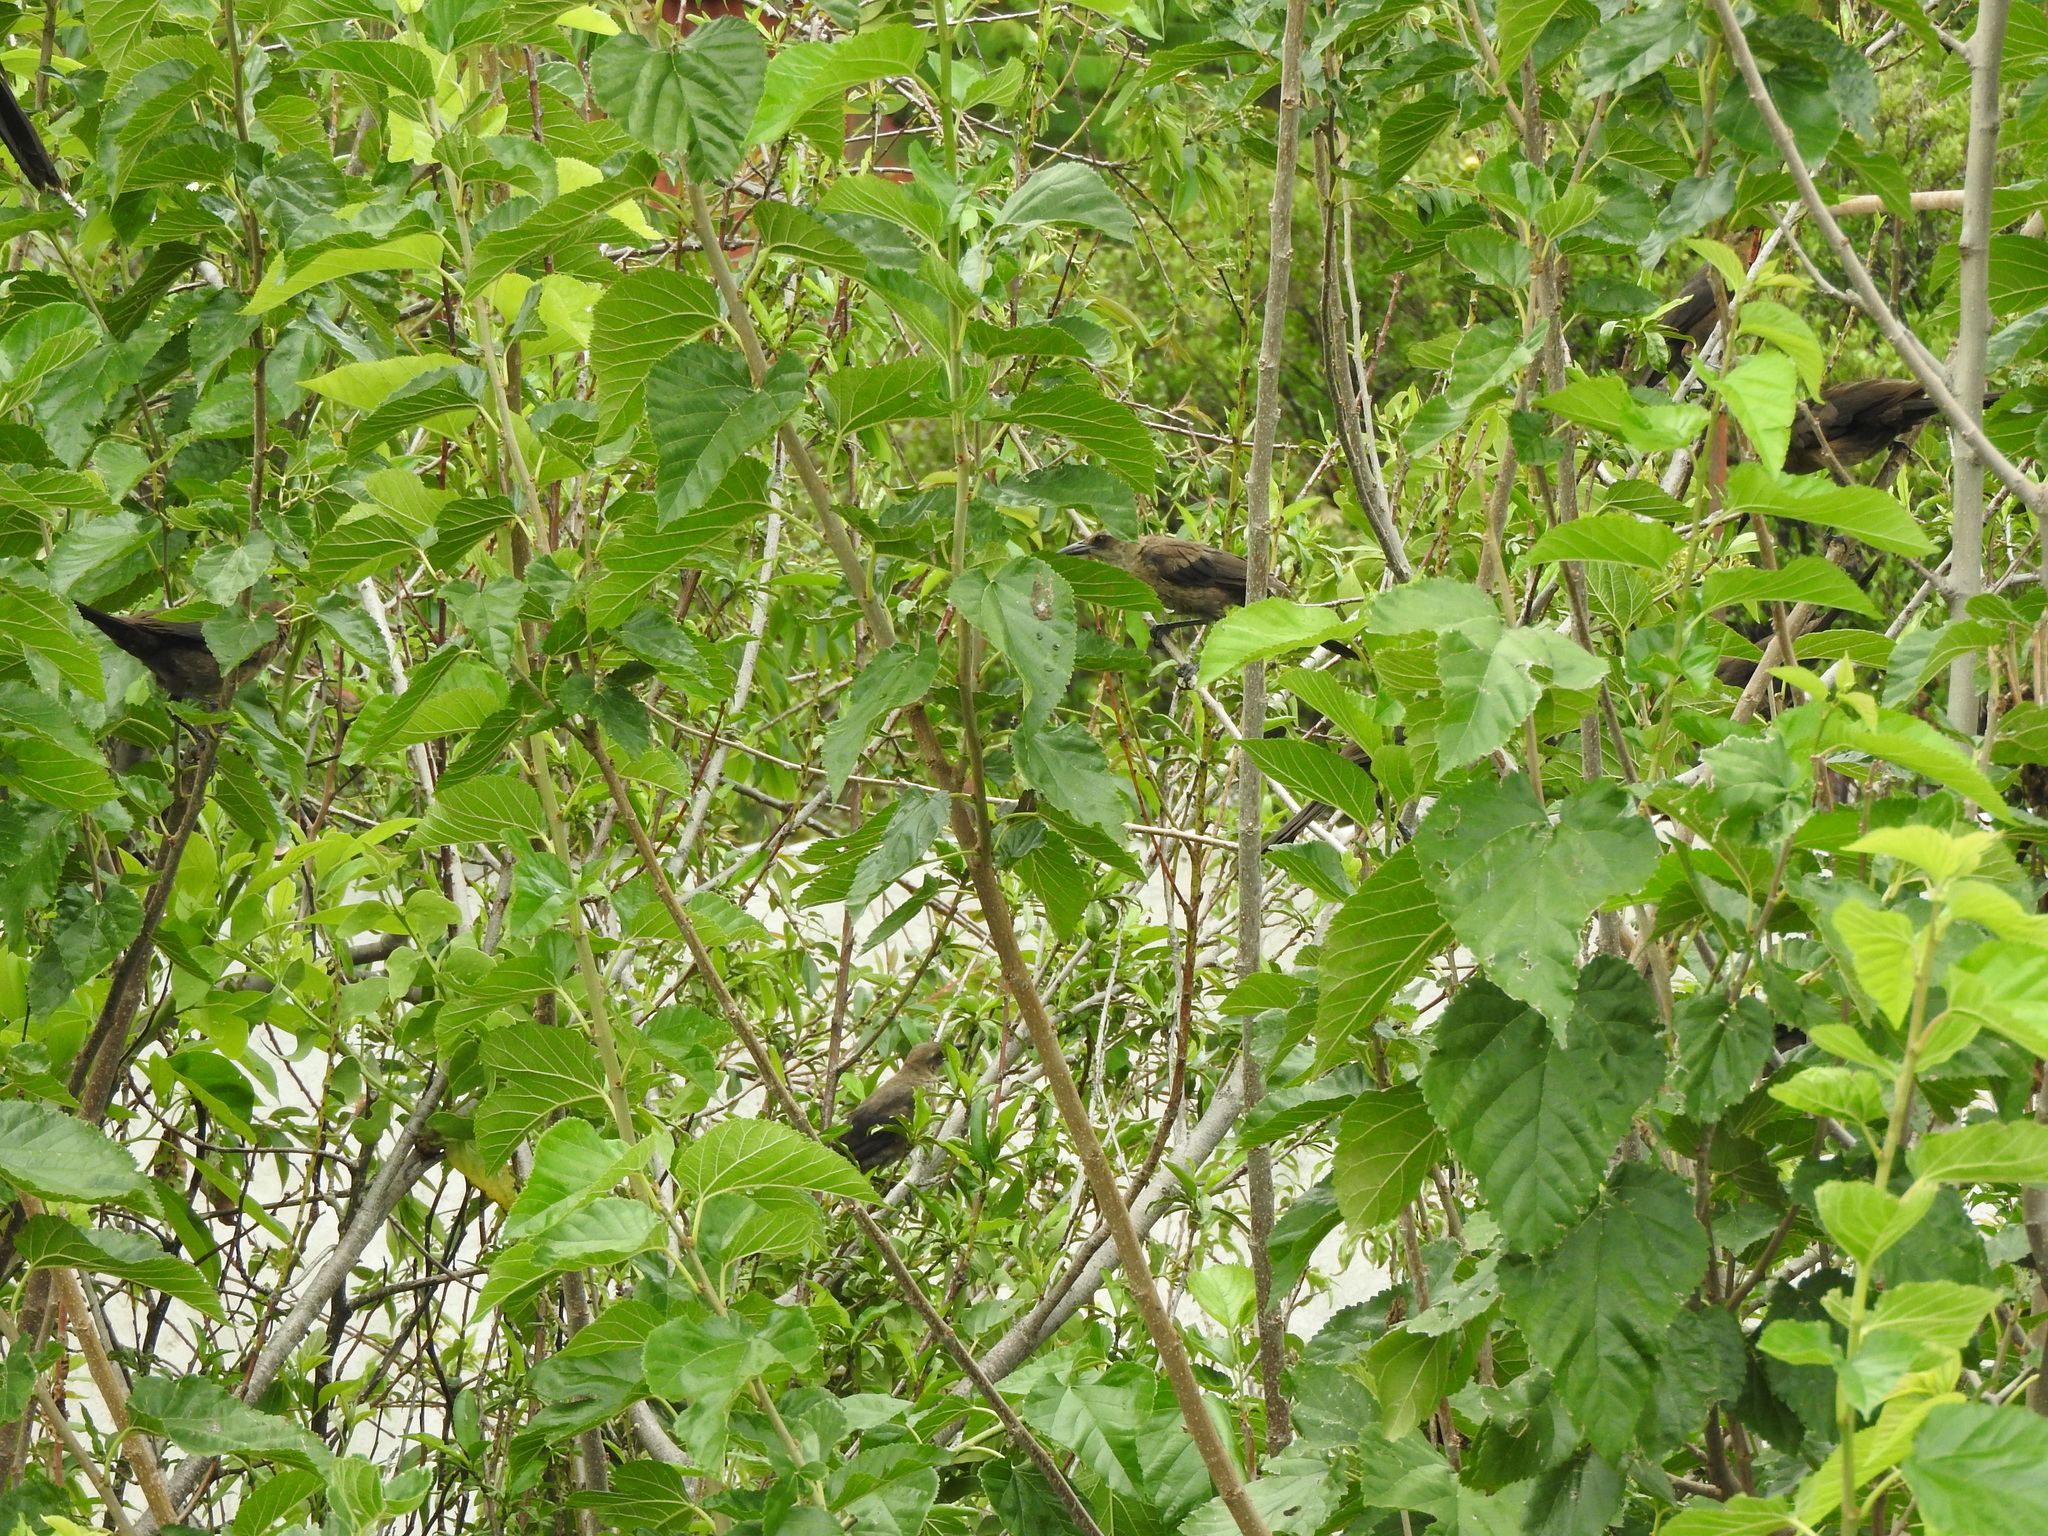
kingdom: Animalia
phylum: Chordata
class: Aves
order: Passeriformes
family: Icteridae
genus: Quiscalus
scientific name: Quiscalus mexicanus
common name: Great-tailed grackle
